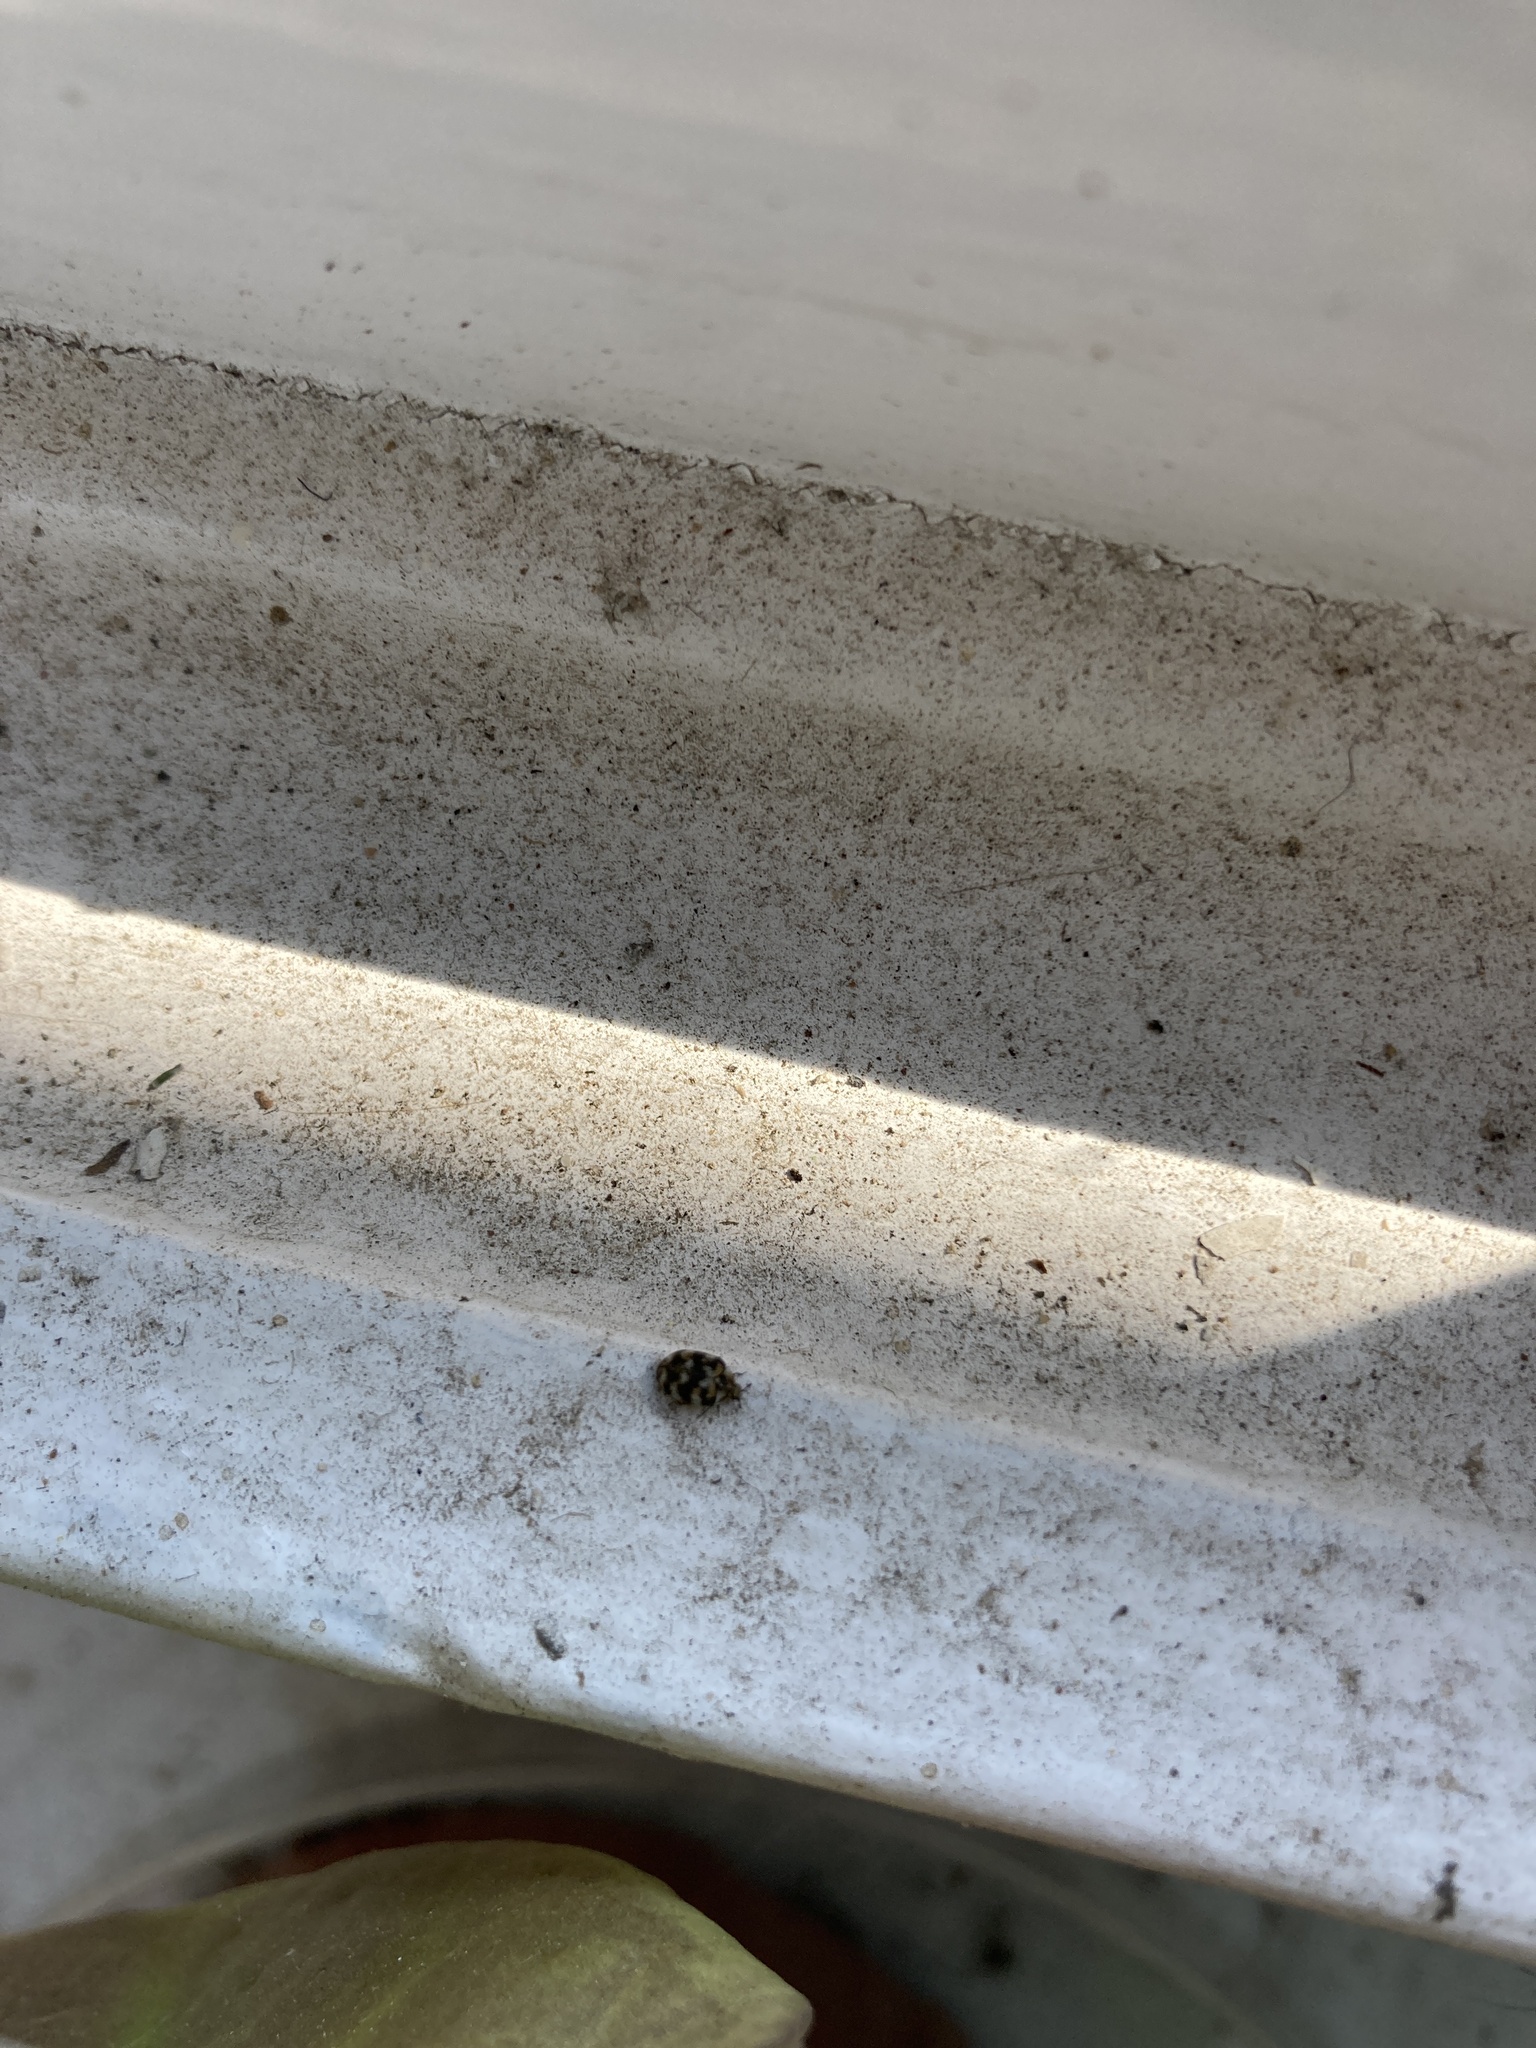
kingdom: Animalia
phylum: Arthropoda
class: Insecta
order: Coleoptera
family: Dermestidae
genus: Anthrenus
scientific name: Anthrenus verbasci
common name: Varied carpet beetle
